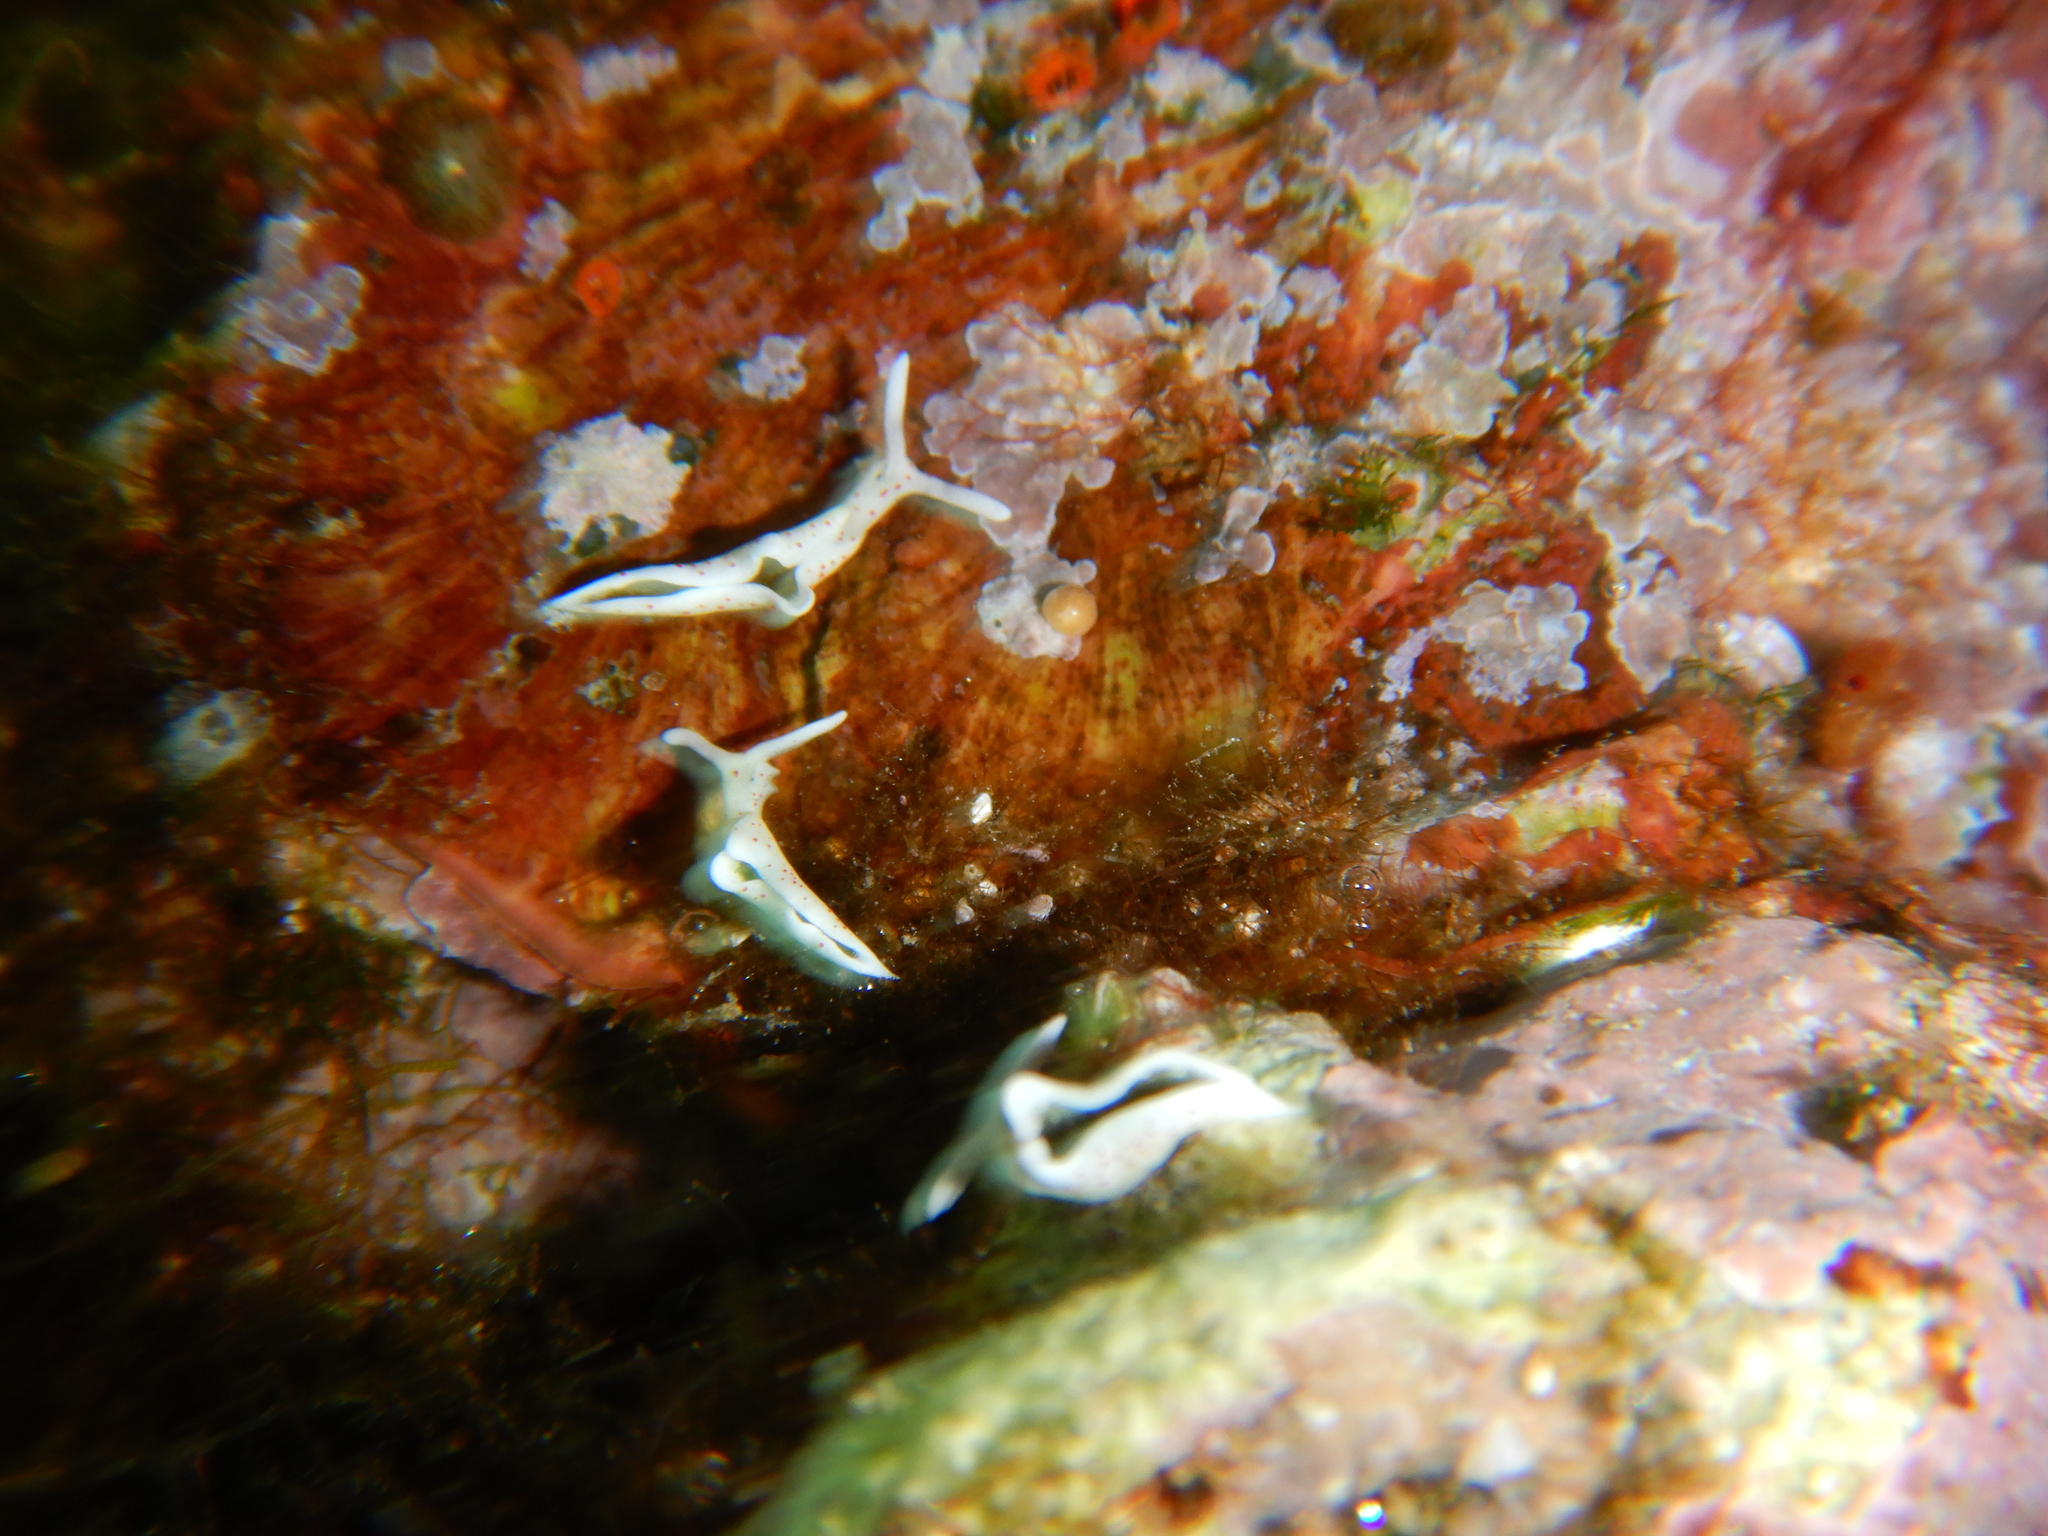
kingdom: Animalia
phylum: Mollusca
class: Gastropoda
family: Plakobranchidae
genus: Elysia
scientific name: Elysia timida
